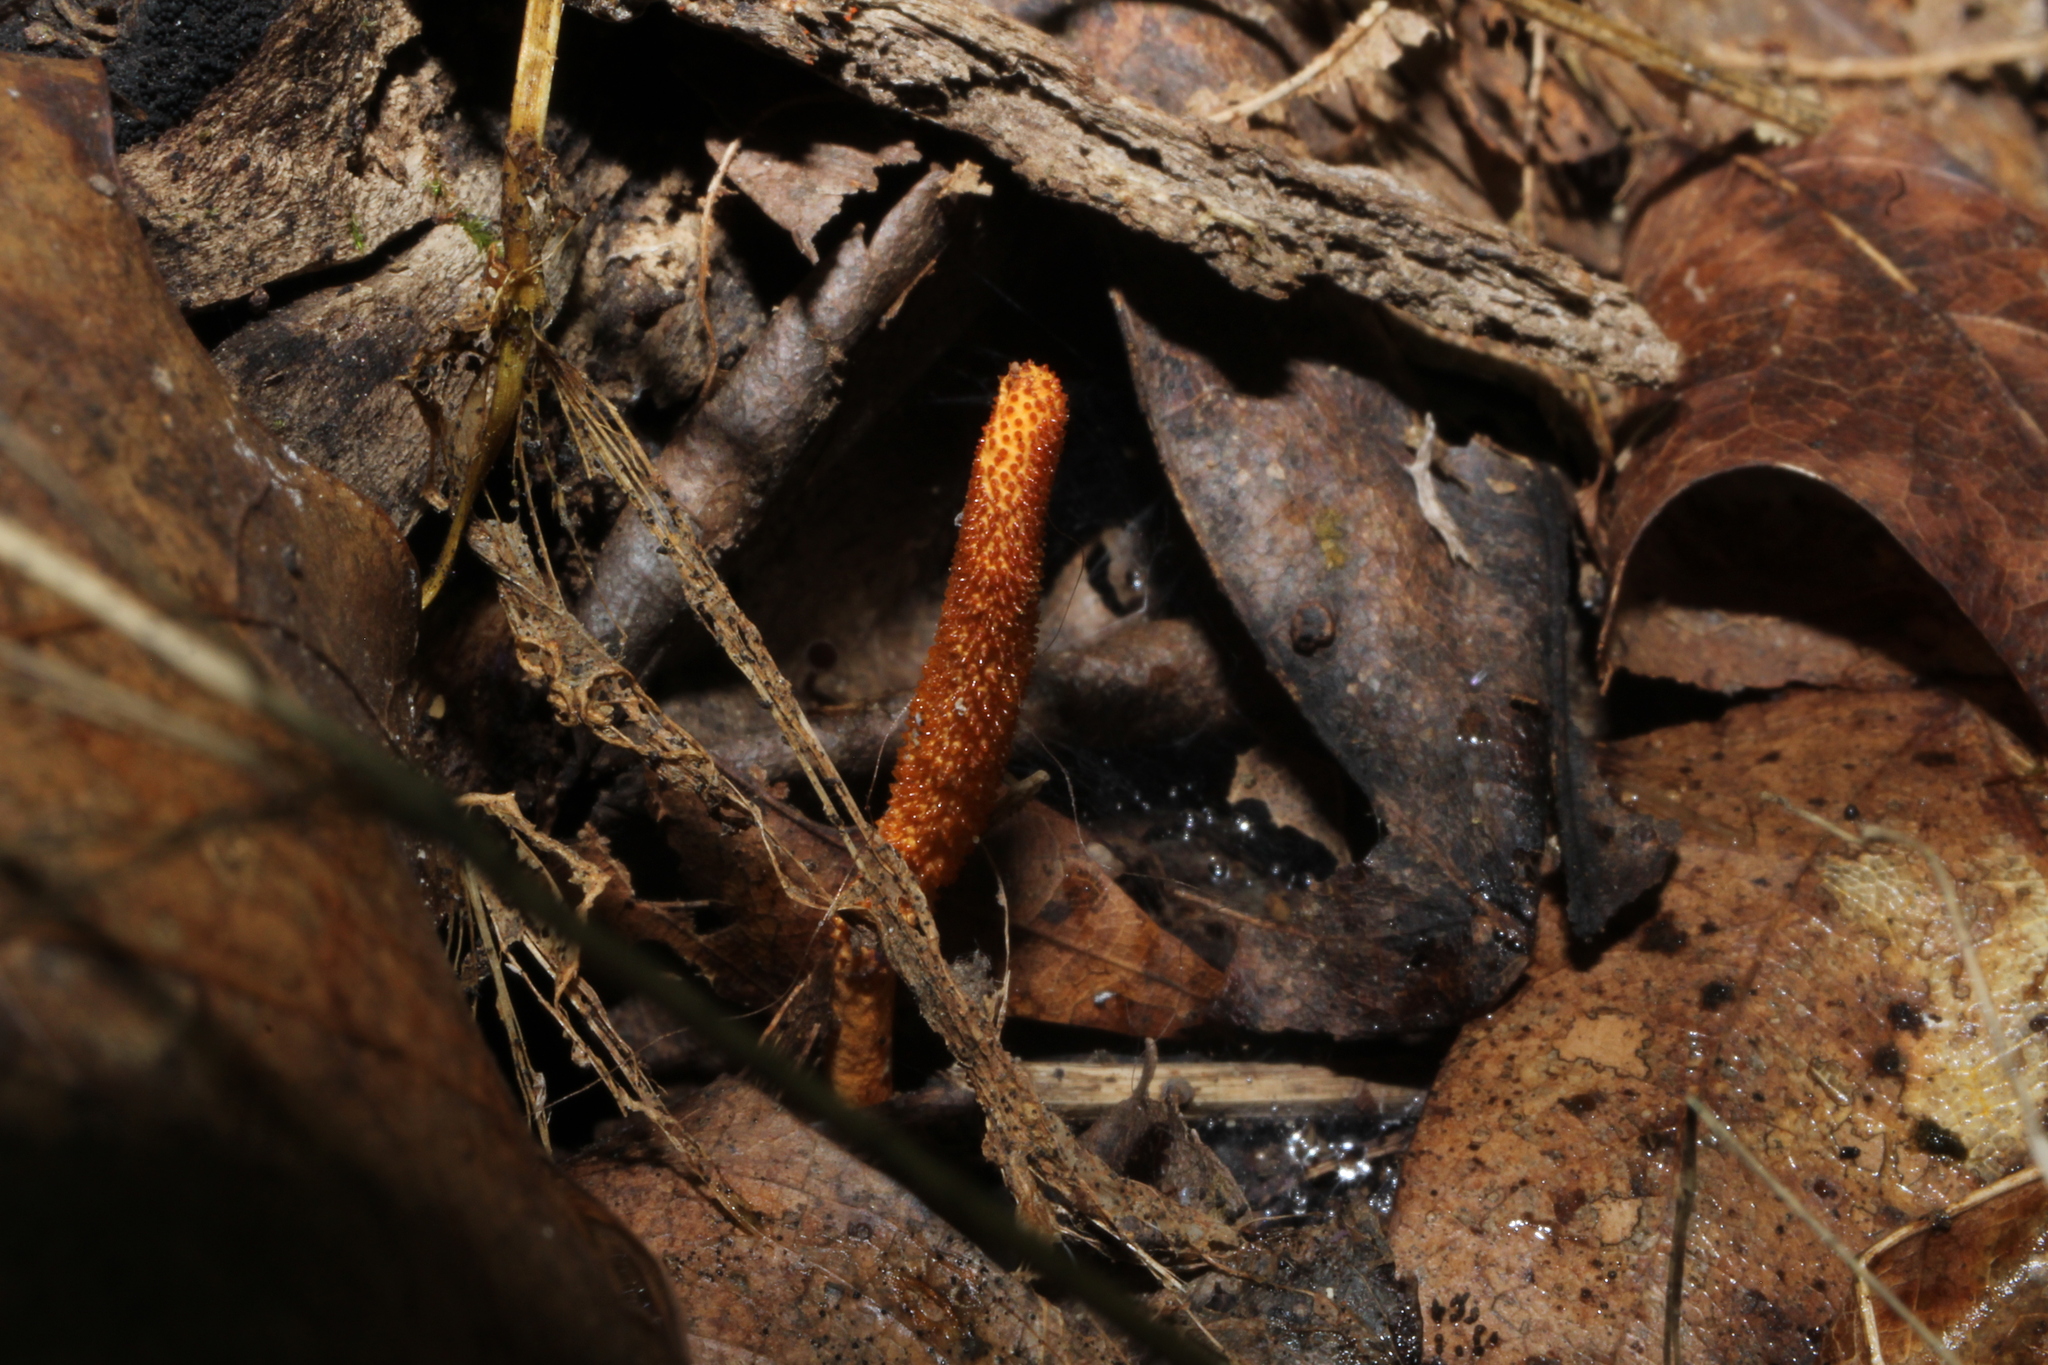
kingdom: Fungi
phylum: Ascomycota
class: Sordariomycetes
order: Hypocreales
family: Cordycipitaceae
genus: Cordyceps
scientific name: Cordyceps militaris
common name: Scarlet caterpillar fungus
